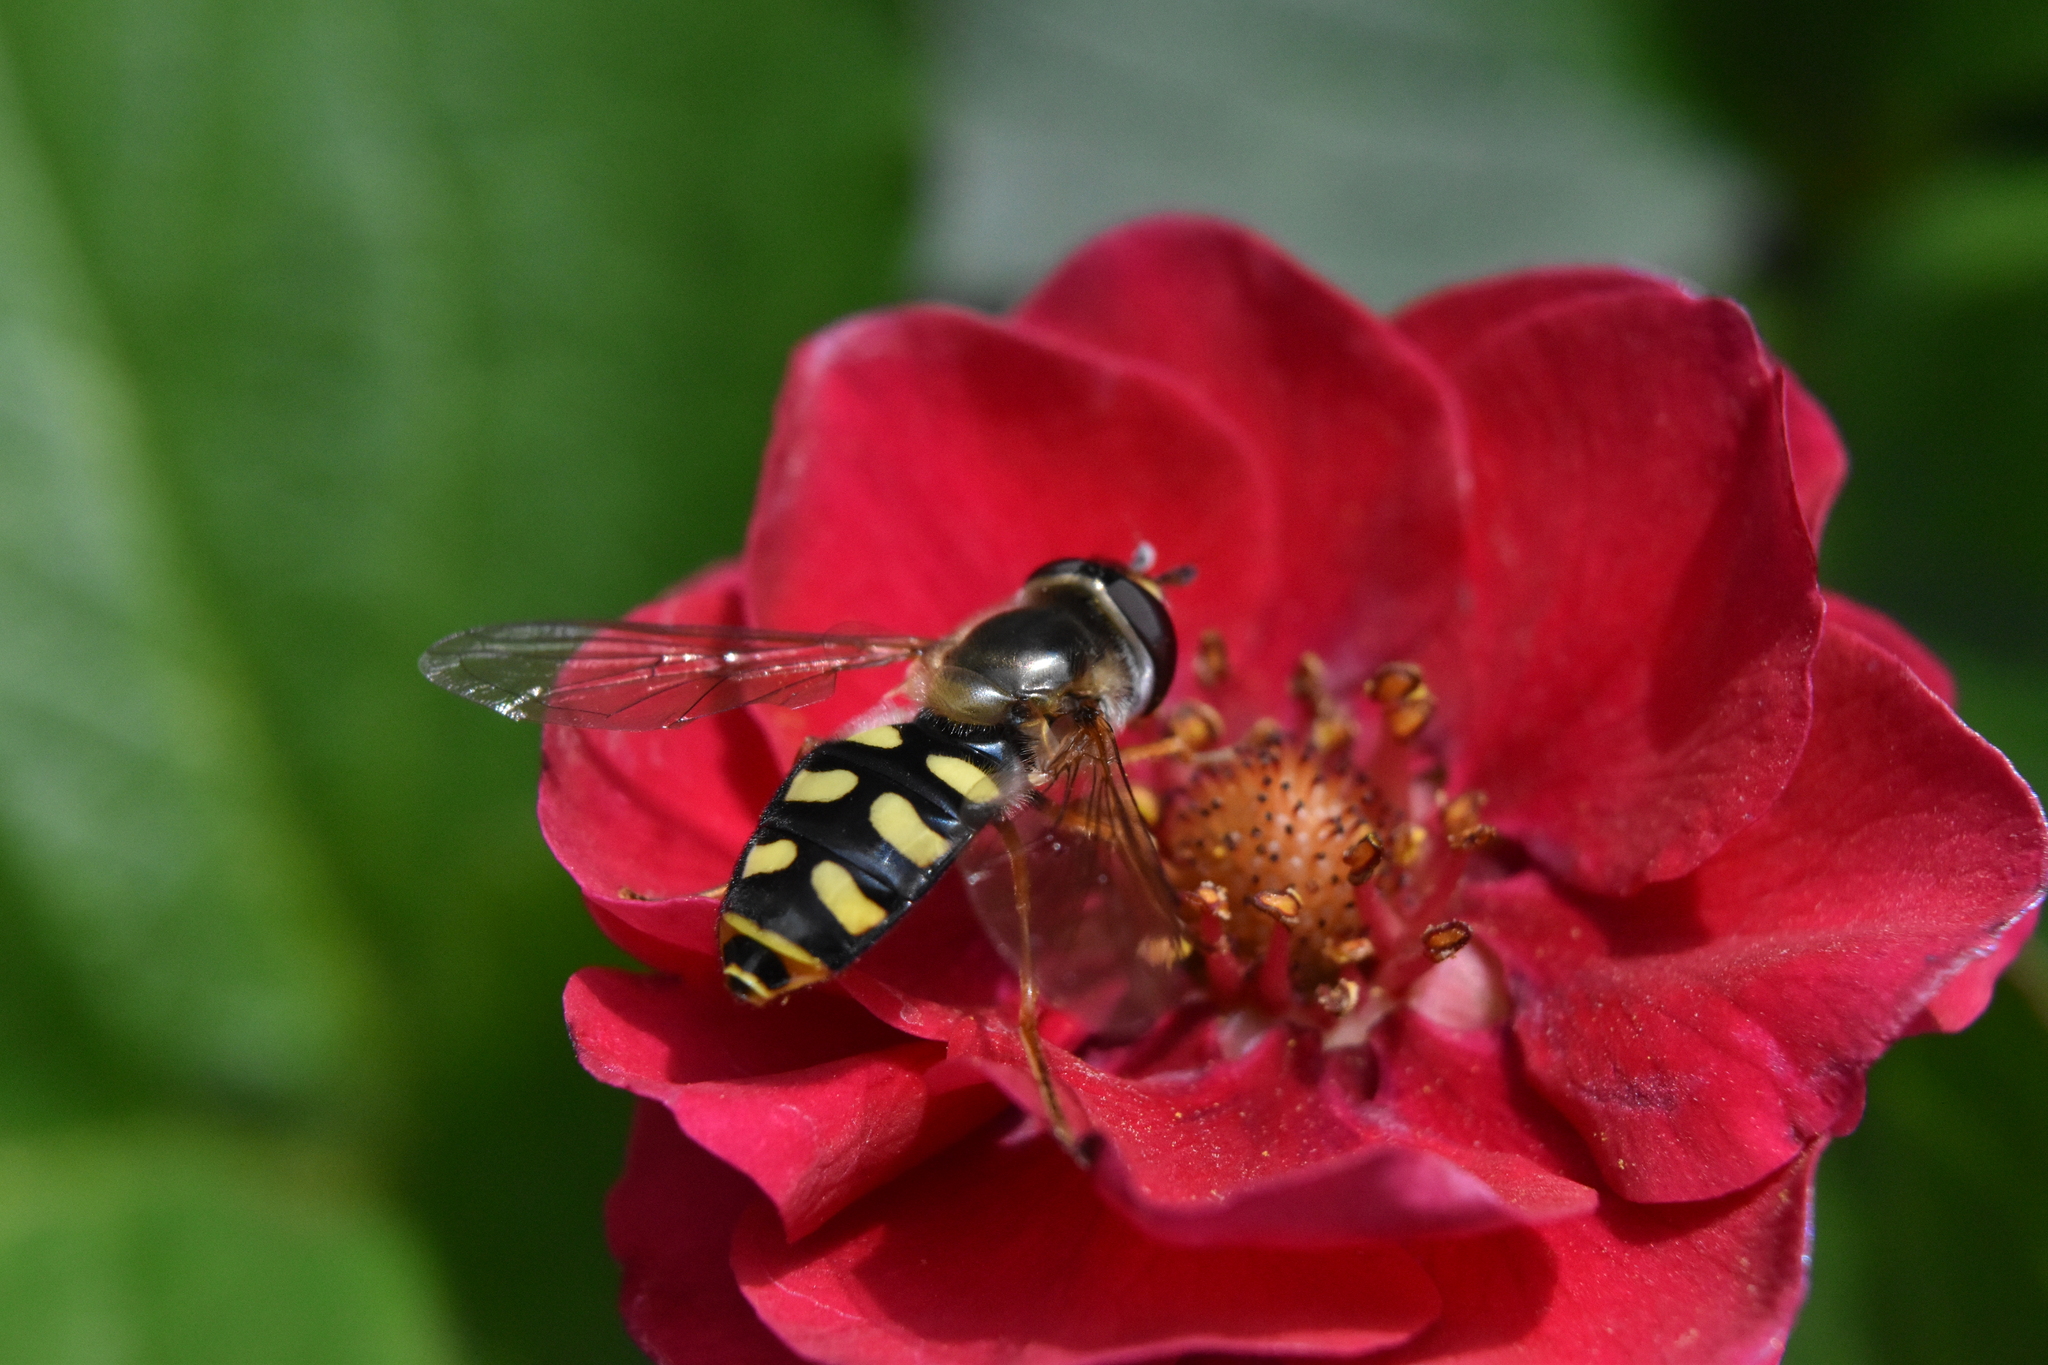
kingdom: Animalia
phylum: Arthropoda
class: Insecta
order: Diptera
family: Syrphidae
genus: Eupeodes
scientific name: Eupeodes luniger
